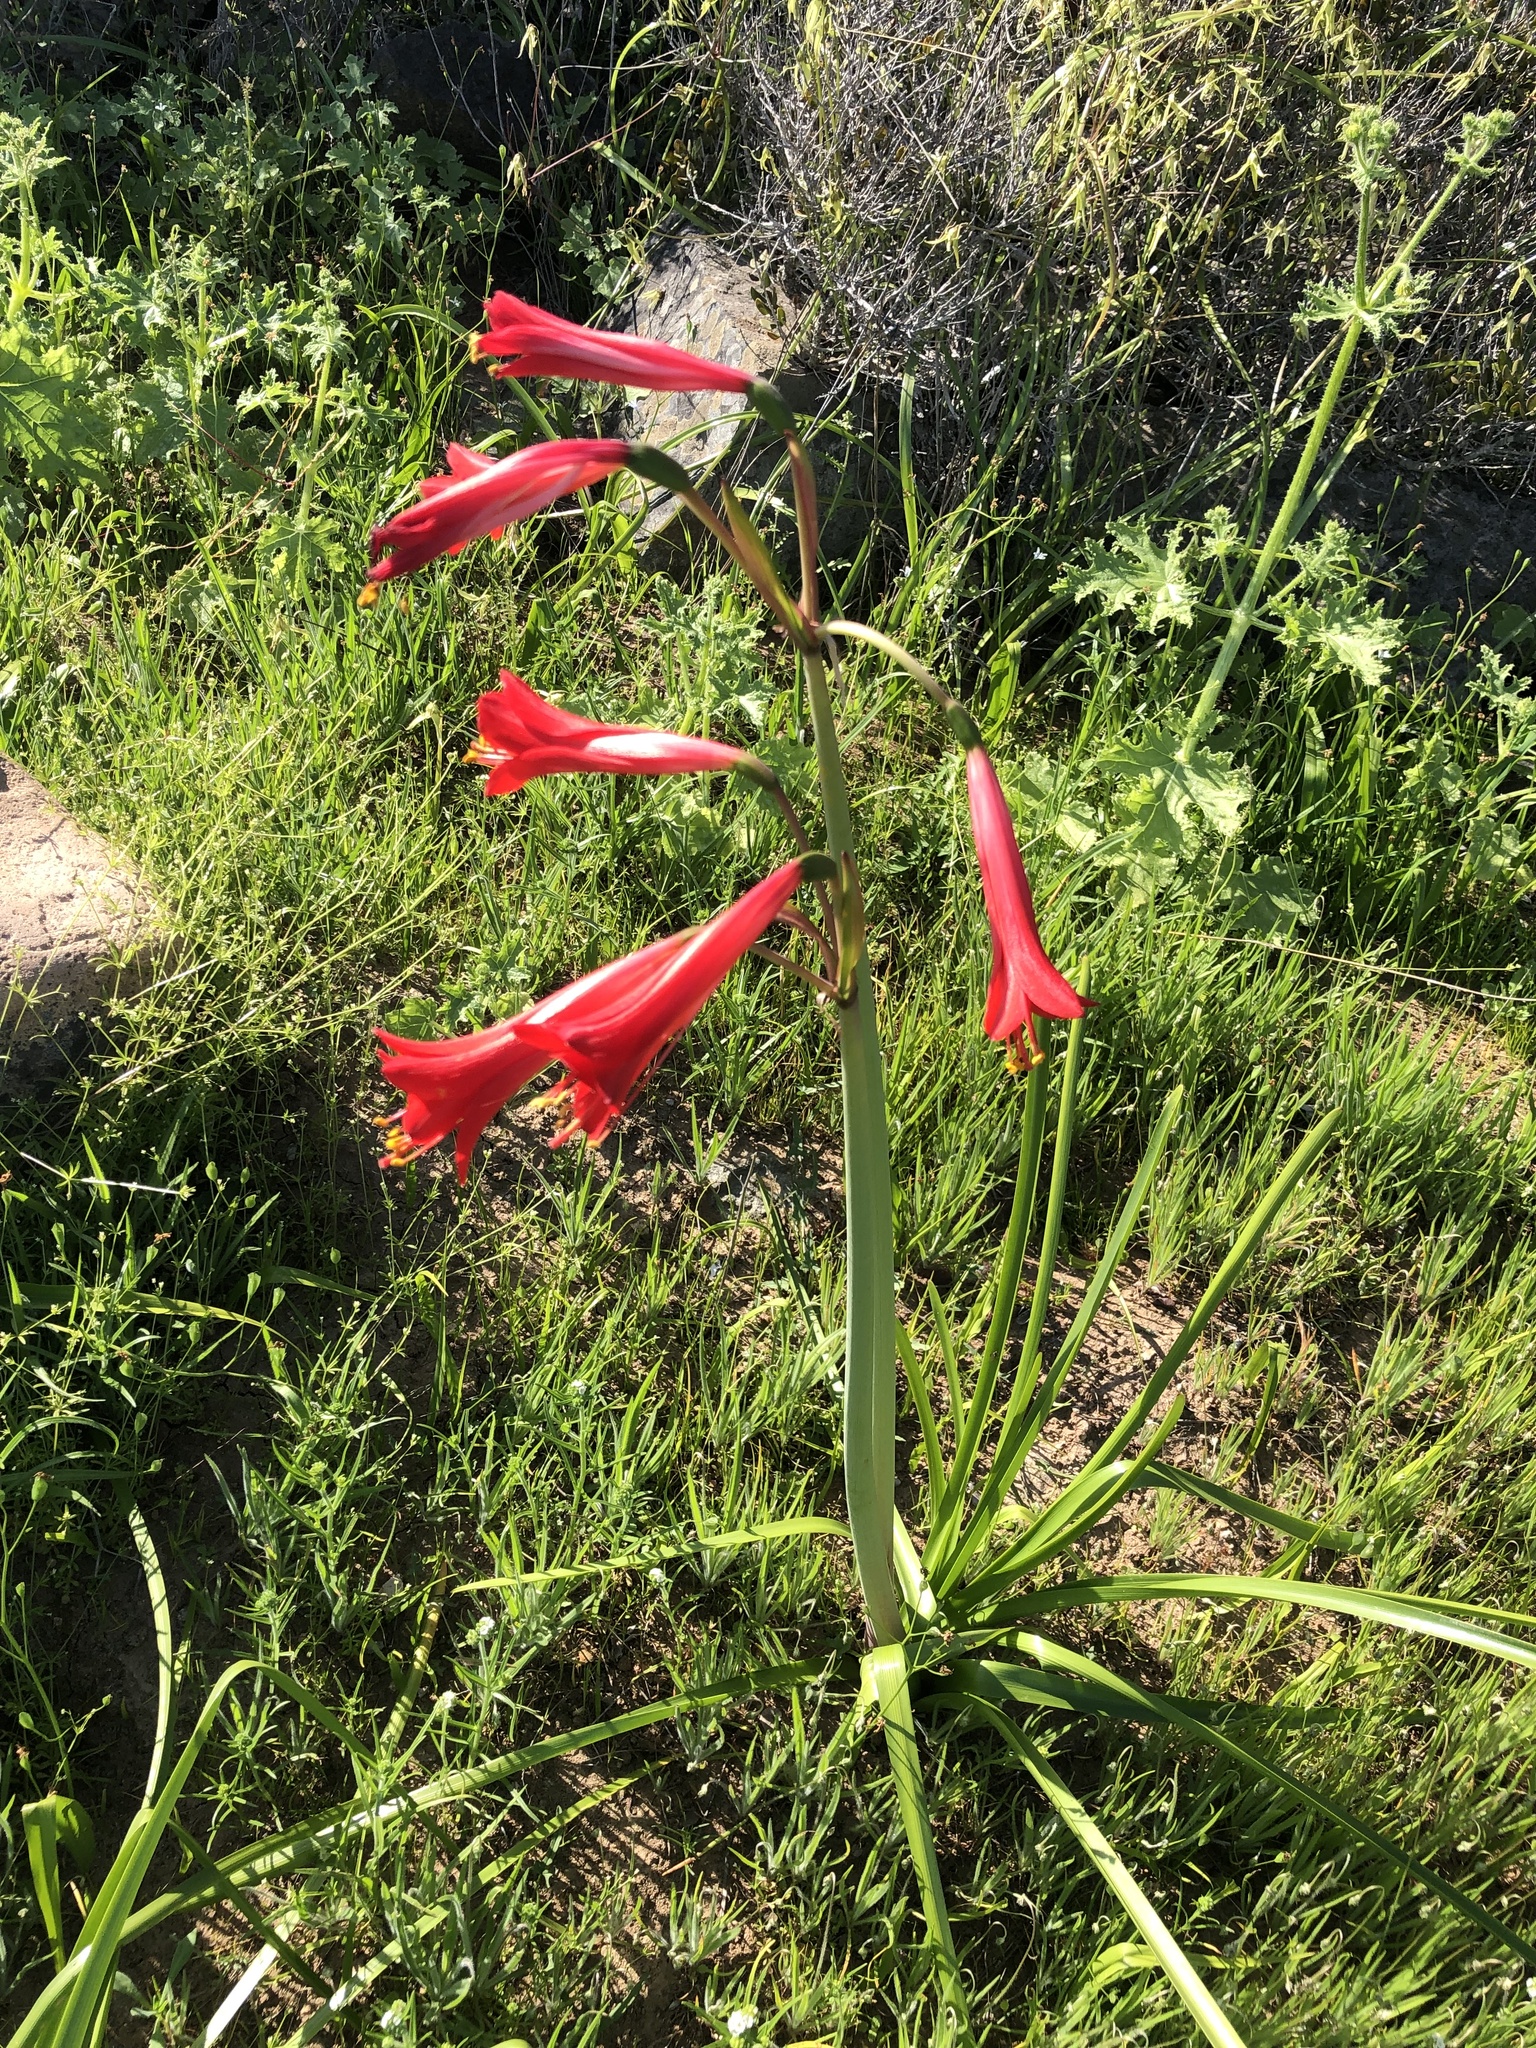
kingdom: Plantae
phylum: Tracheophyta
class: Liliopsida
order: Asparagales
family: Amaryllidaceae
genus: Phycella
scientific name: Phycella cyrtanthoides
